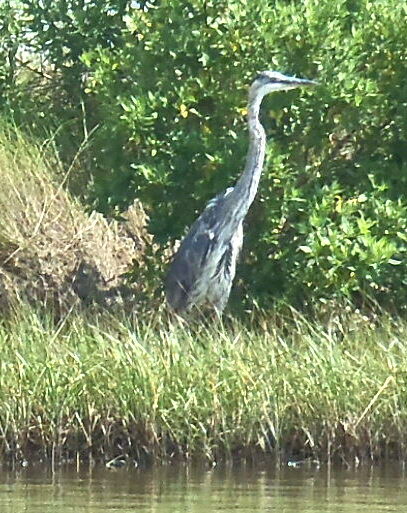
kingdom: Animalia
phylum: Chordata
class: Aves
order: Pelecaniformes
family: Ardeidae
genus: Ardea
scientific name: Ardea herodias
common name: Great blue heron
